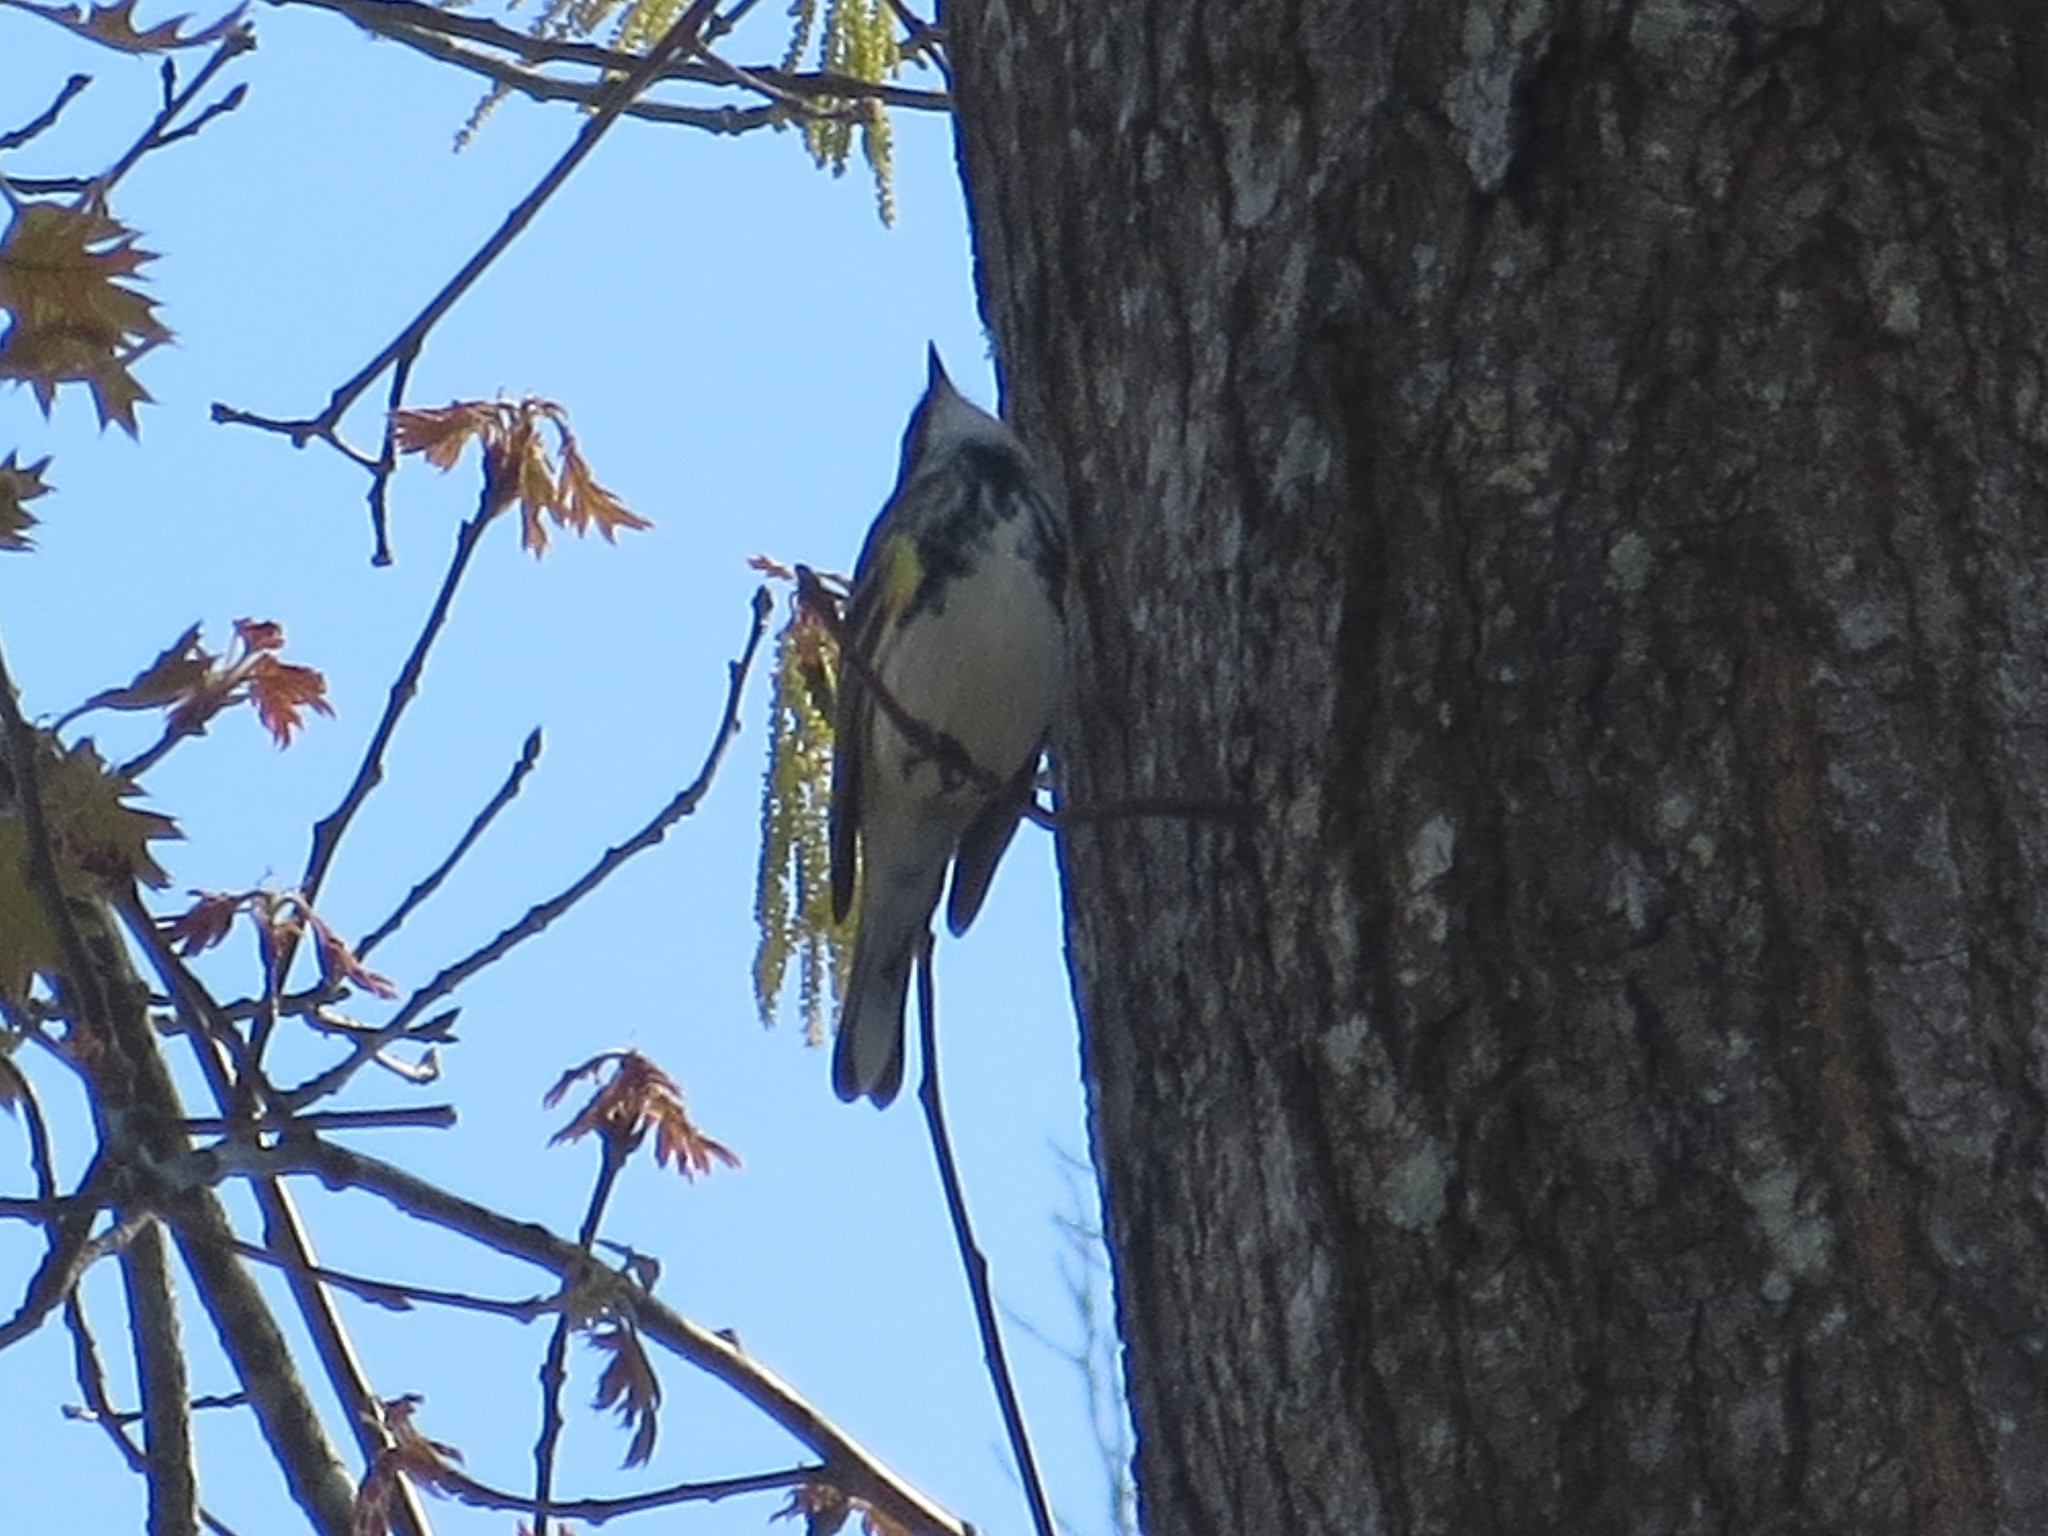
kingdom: Animalia
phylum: Chordata
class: Aves
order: Passeriformes
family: Parulidae
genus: Setophaga
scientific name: Setophaga coronata
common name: Myrtle warbler
